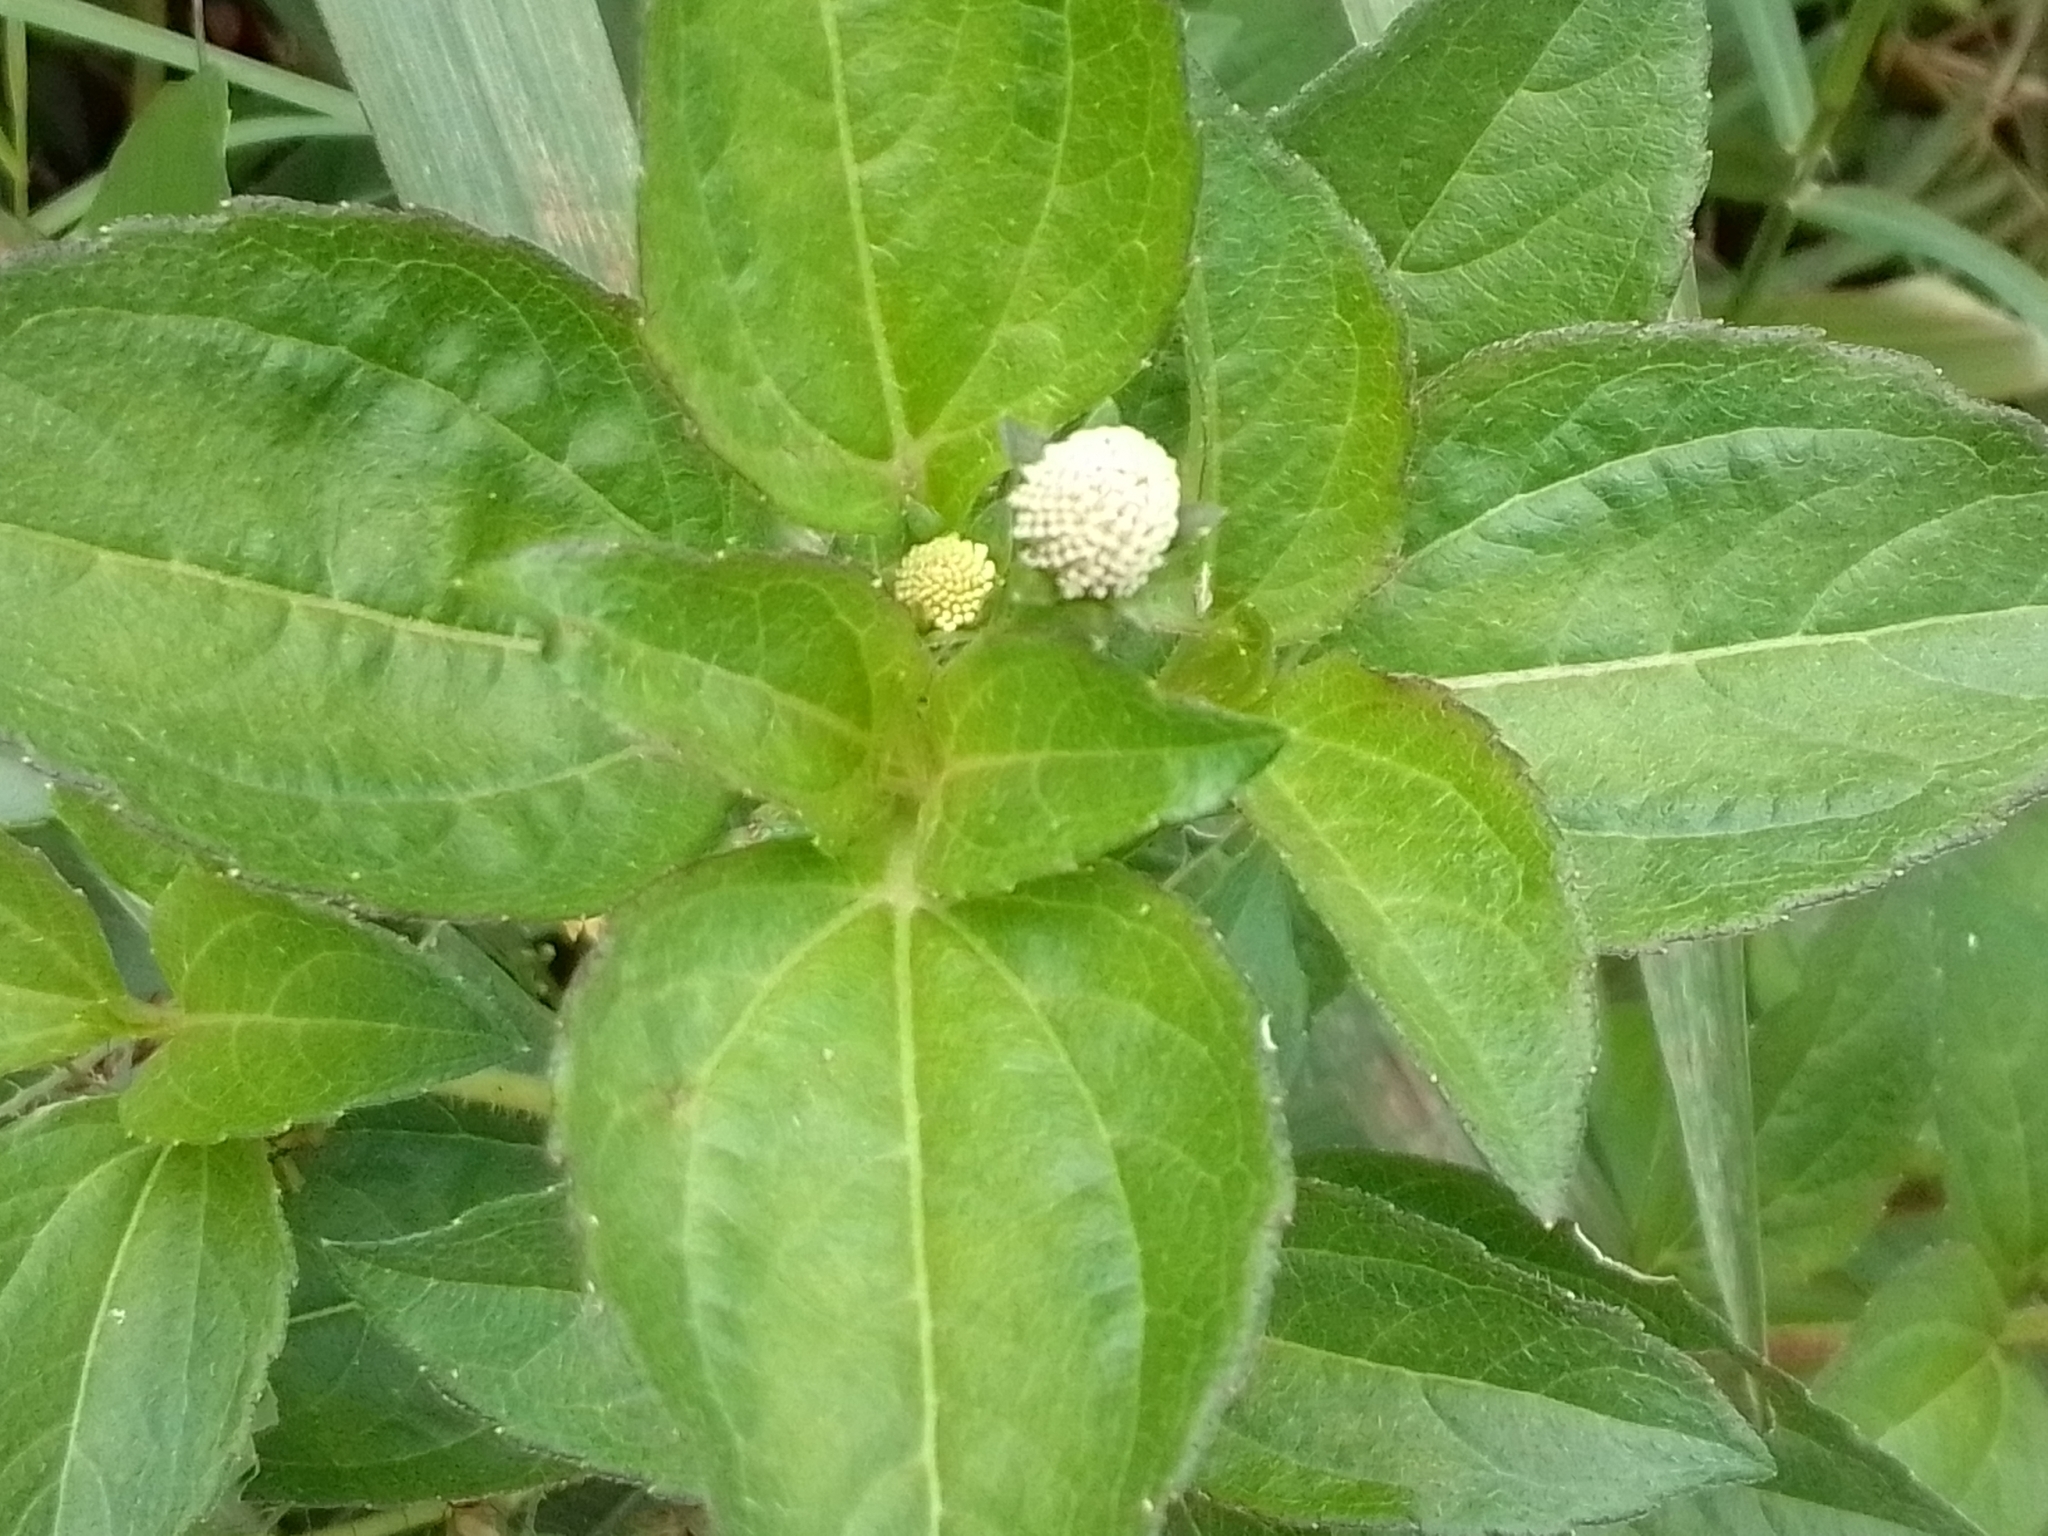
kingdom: Plantae
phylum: Tracheophyta
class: Magnoliopsida
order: Asterales
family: Asteraceae
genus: Acmella
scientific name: Acmella radicans
